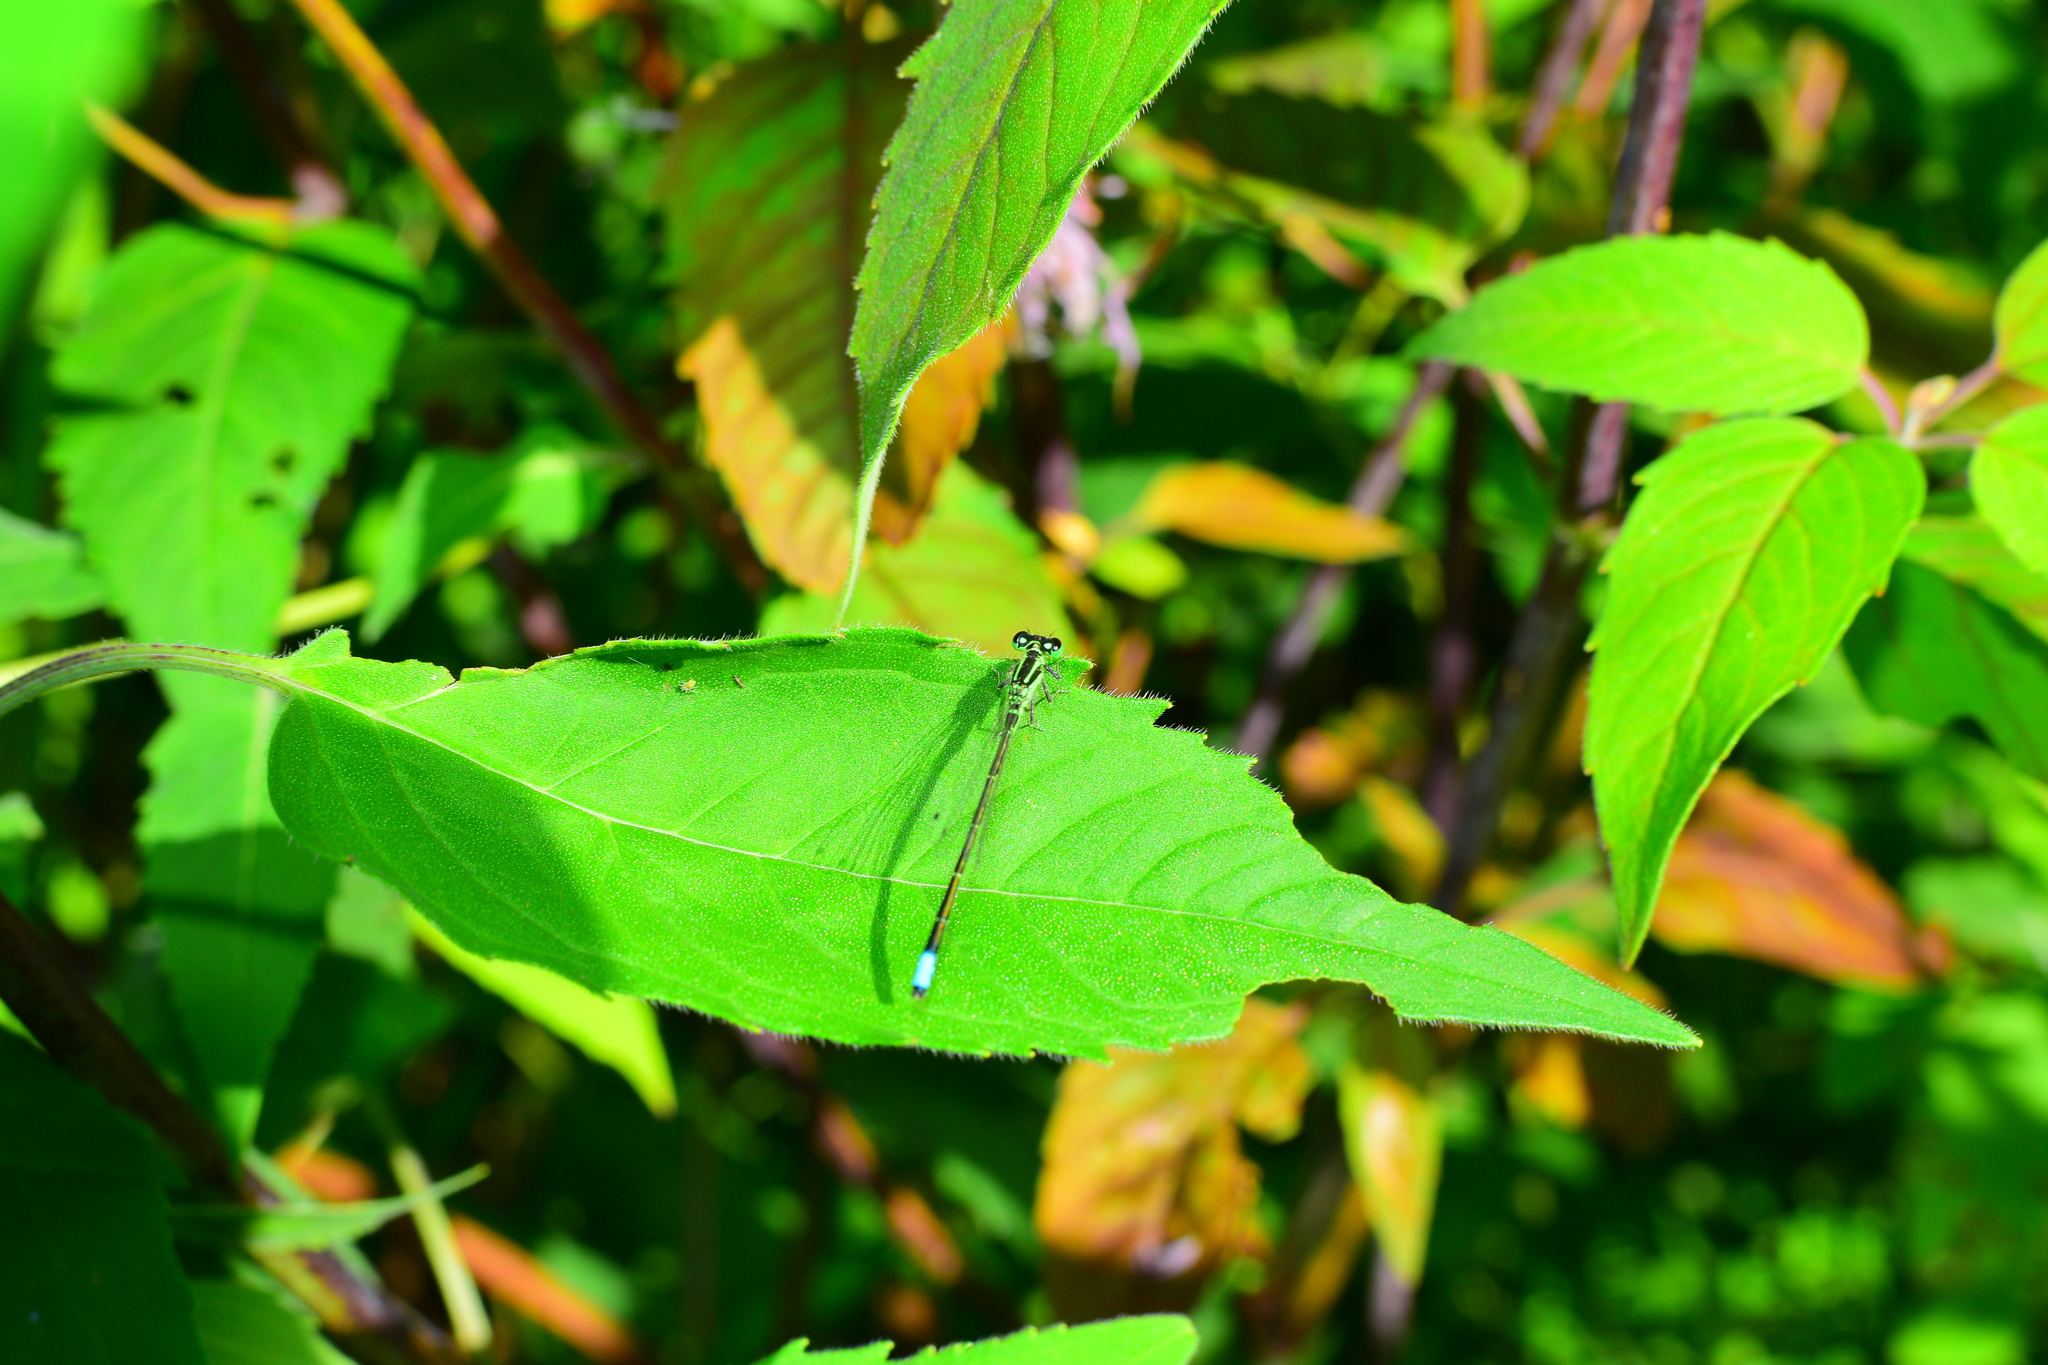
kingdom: Animalia
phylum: Arthropoda
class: Insecta
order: Odonata
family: Coenagrionidae
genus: Ischnura
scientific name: Ischnura verticalis
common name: Eastern forktail
